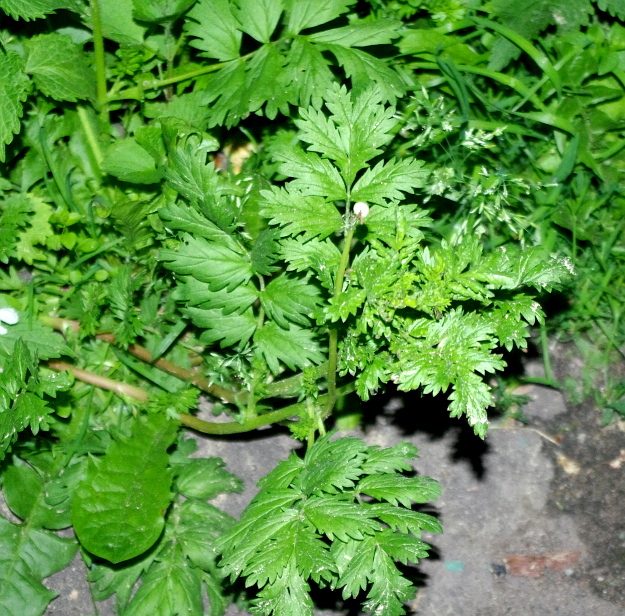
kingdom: Plantae
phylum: Tracheophyta
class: Magnoliopsida
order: Rosales
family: Rosaceae
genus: Potentilla
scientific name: Potentilla supina
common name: Prostrate cinquefoil
